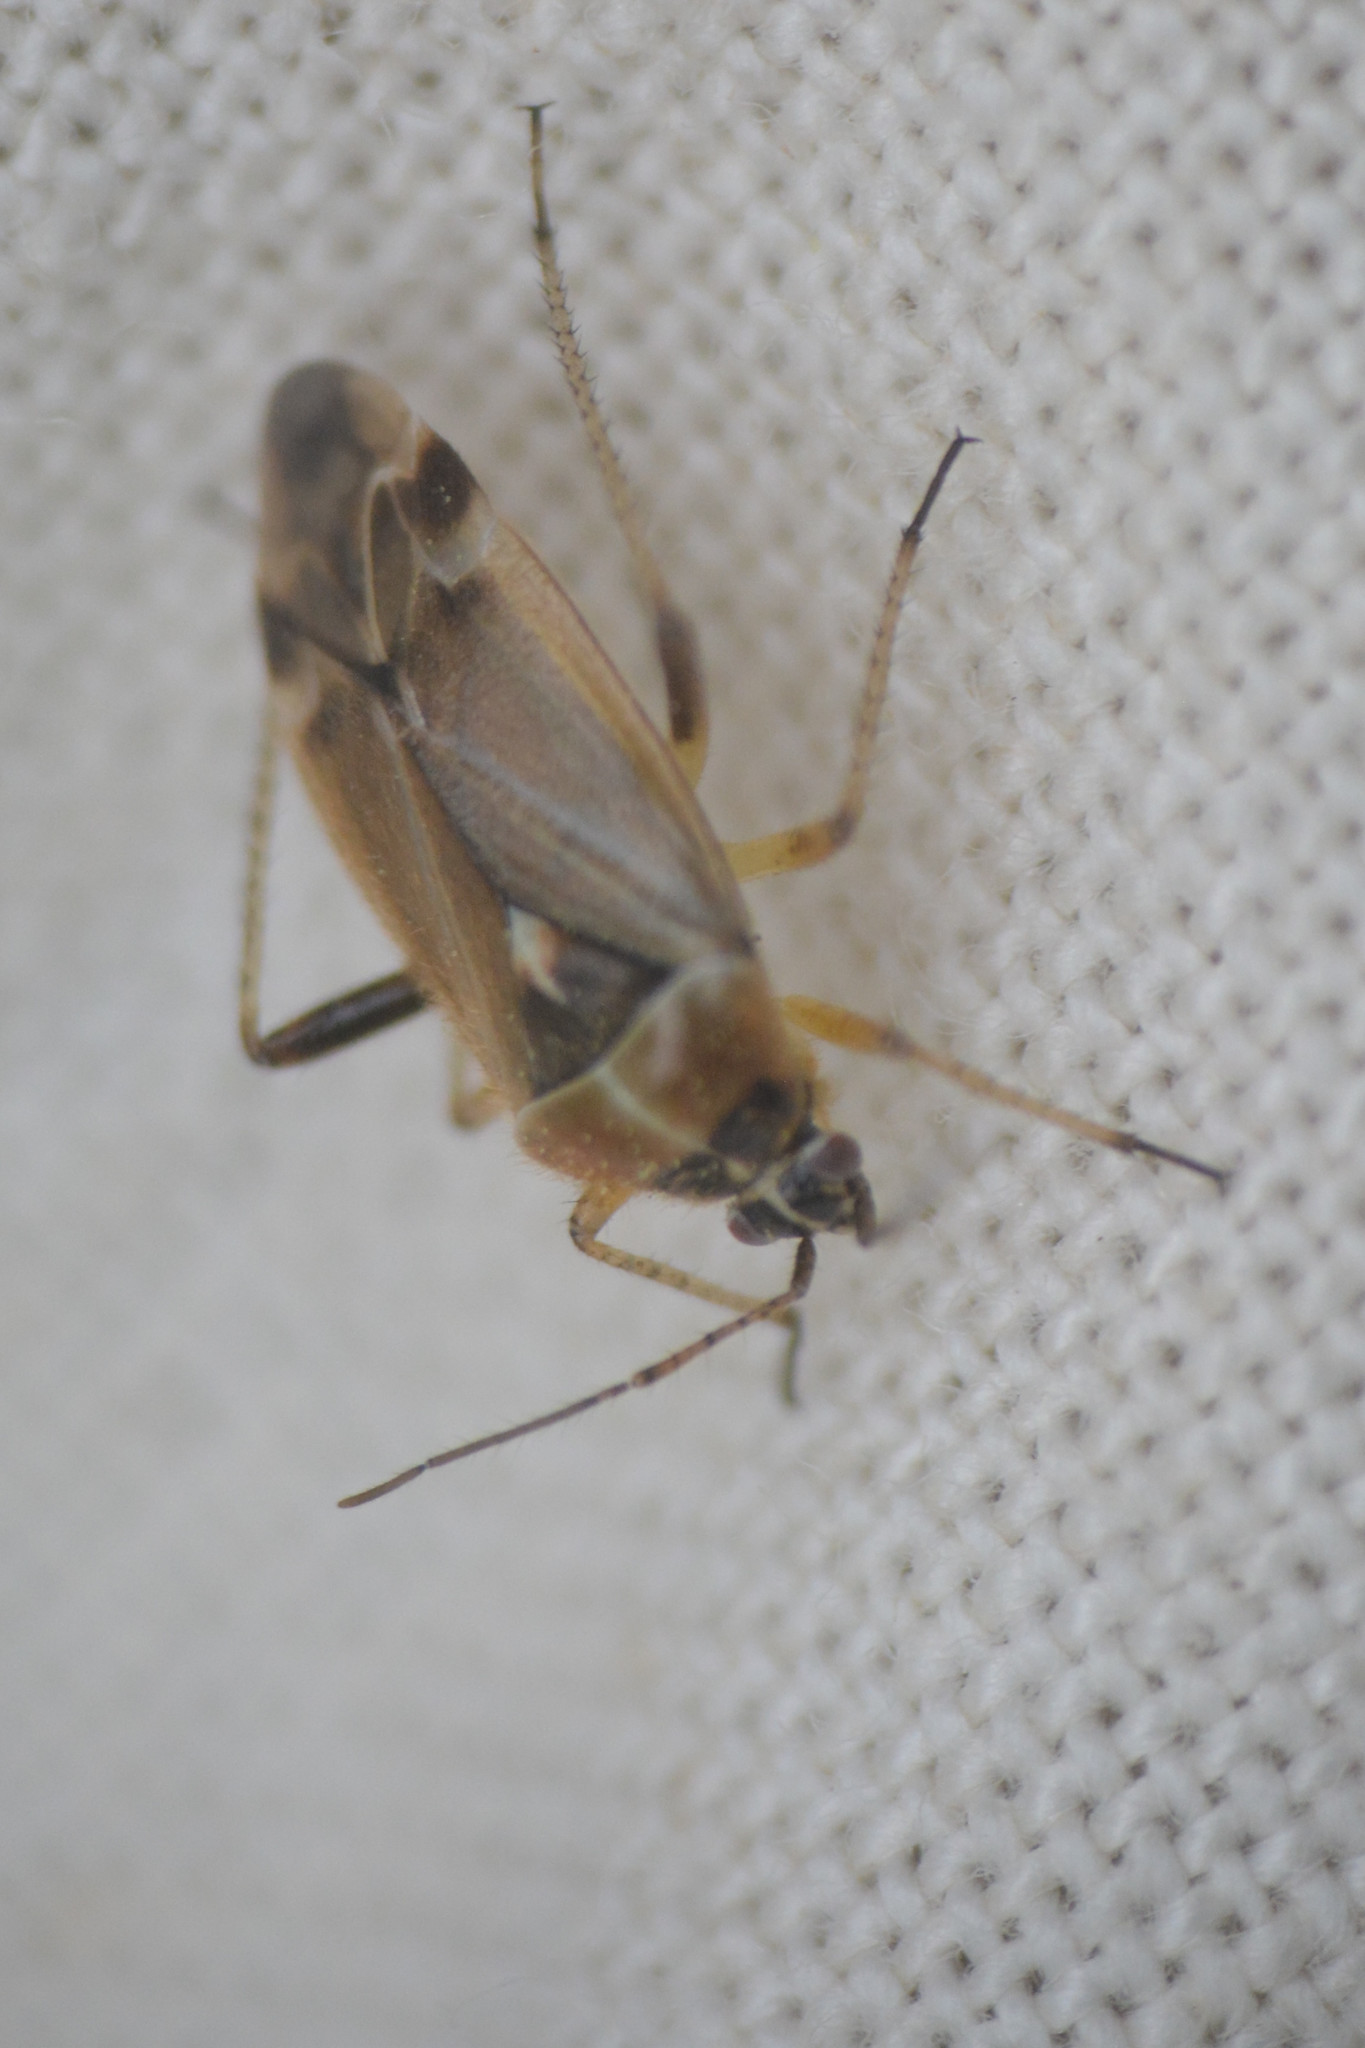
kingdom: Animalia
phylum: Arthropoda
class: Insecta
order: Hemiptera
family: Miridae
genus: Harpocera
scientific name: Harpocera thoracica
